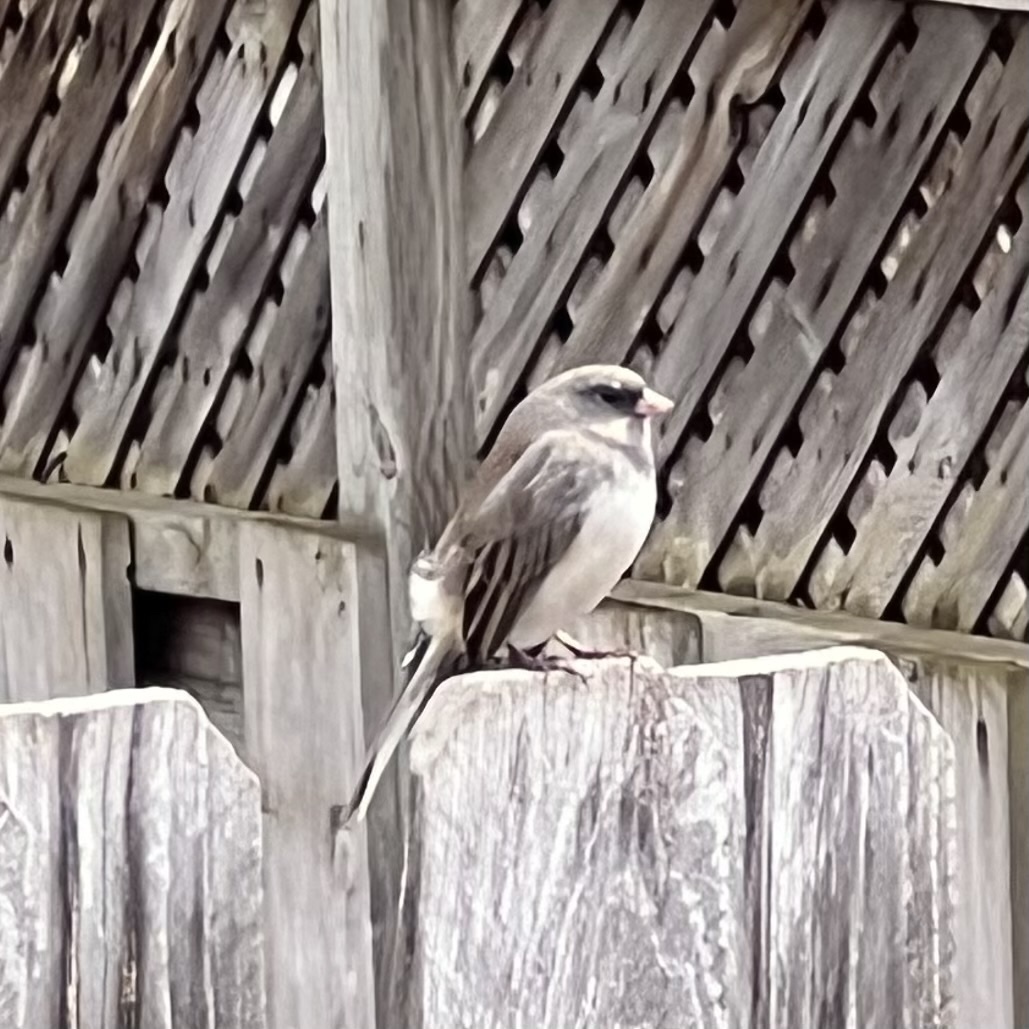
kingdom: Animalia
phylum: Chordata
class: Aves
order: Passeriformes
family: Passerellidae
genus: Junco
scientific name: Junco hyemalis
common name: Dark-eyed junco
